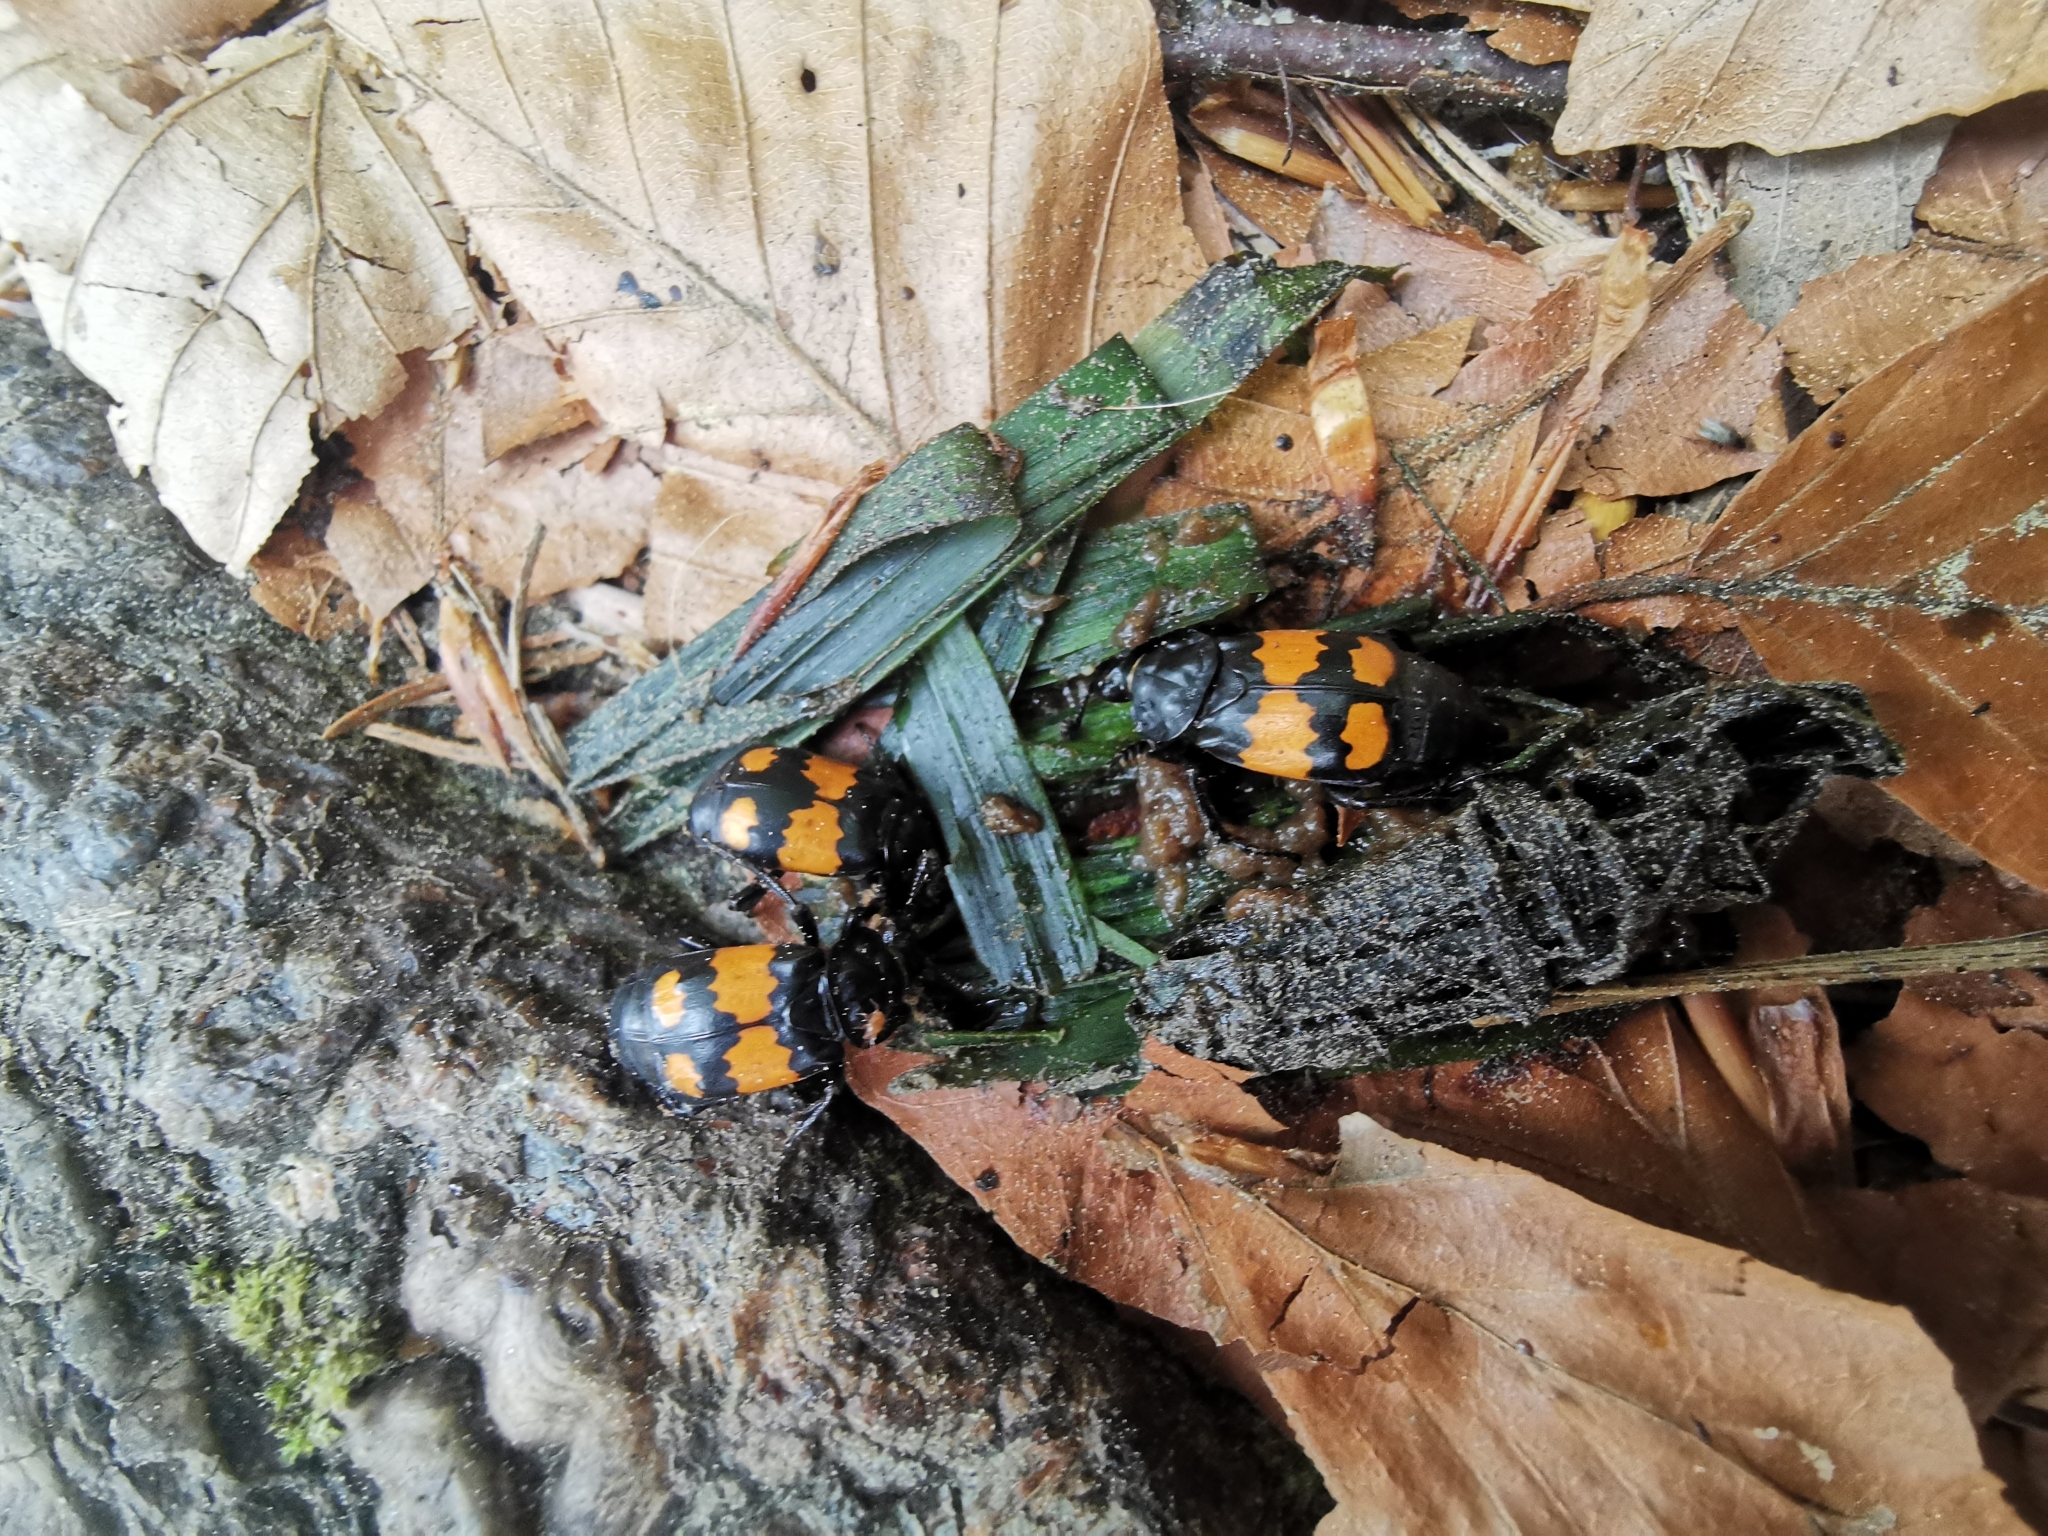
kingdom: Animalia
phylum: Arthropoda
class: Insecta
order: Coleoptera
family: Staphylinidae
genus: Nicrophorus
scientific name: Nicrophorus vespilloides
